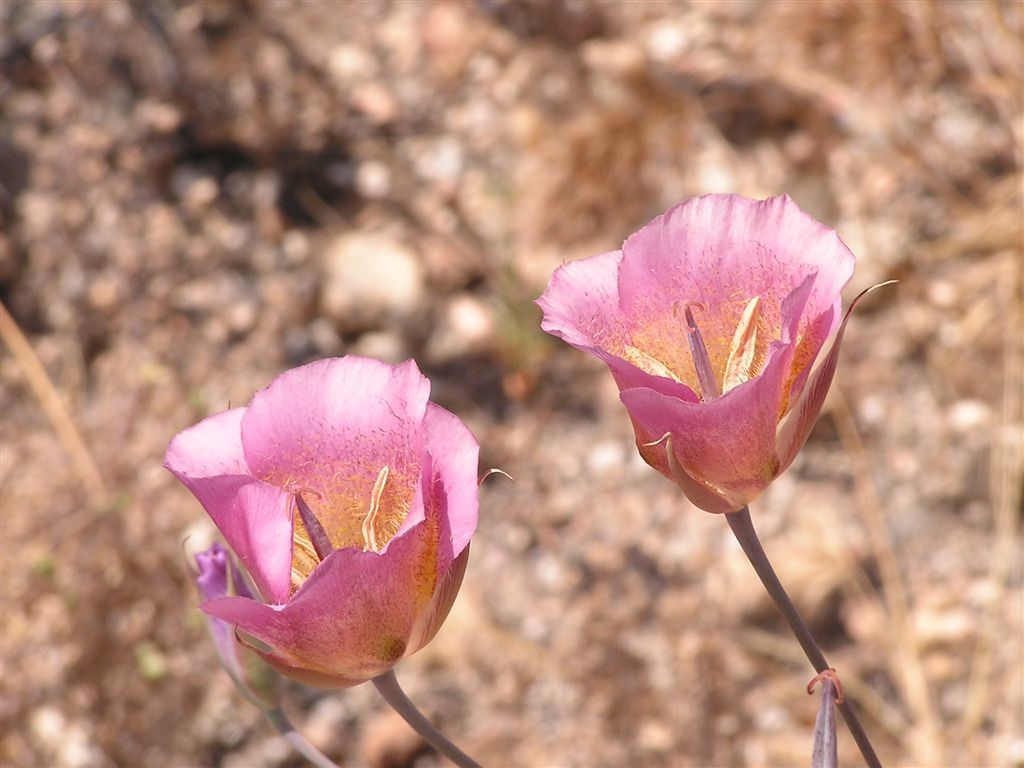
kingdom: Plantae
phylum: Tracheophyta
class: Liliopsida
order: Liliales
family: Liliaceae
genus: Calochortus
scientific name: Calochortus plummerae
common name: Plummer's mariposa-lily
